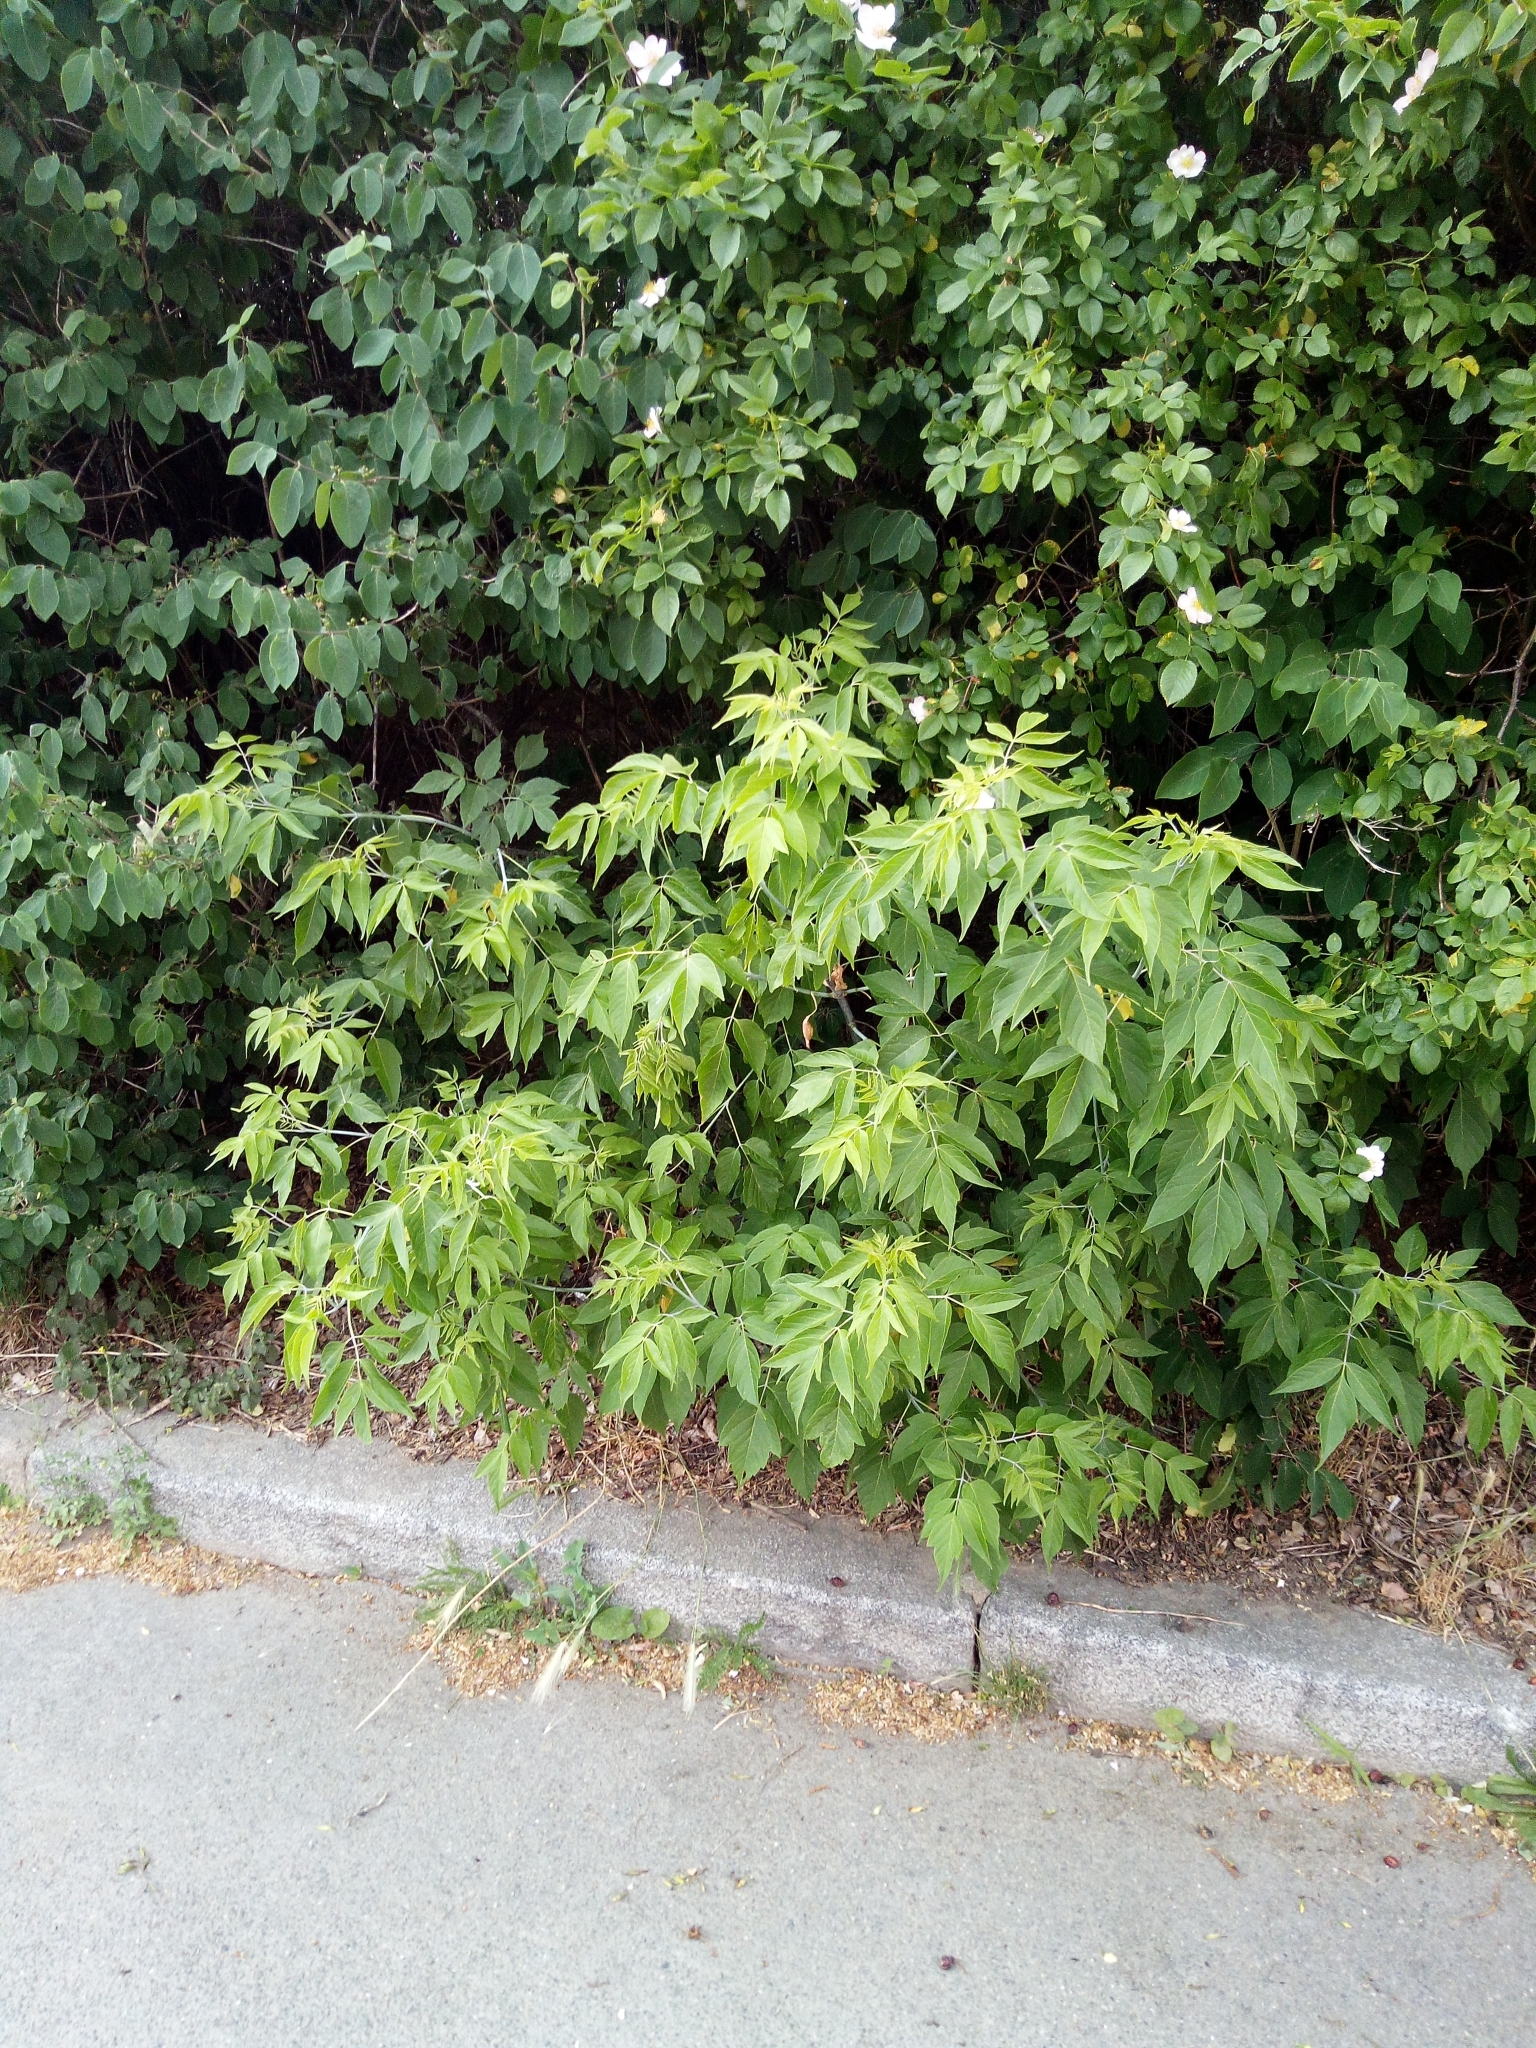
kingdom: Plantae
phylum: Tracheophyta
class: Magnoliopsida
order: Sapindales
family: Sapindaceae
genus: Acer
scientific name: Acer negundo
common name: Ashleaf maple
